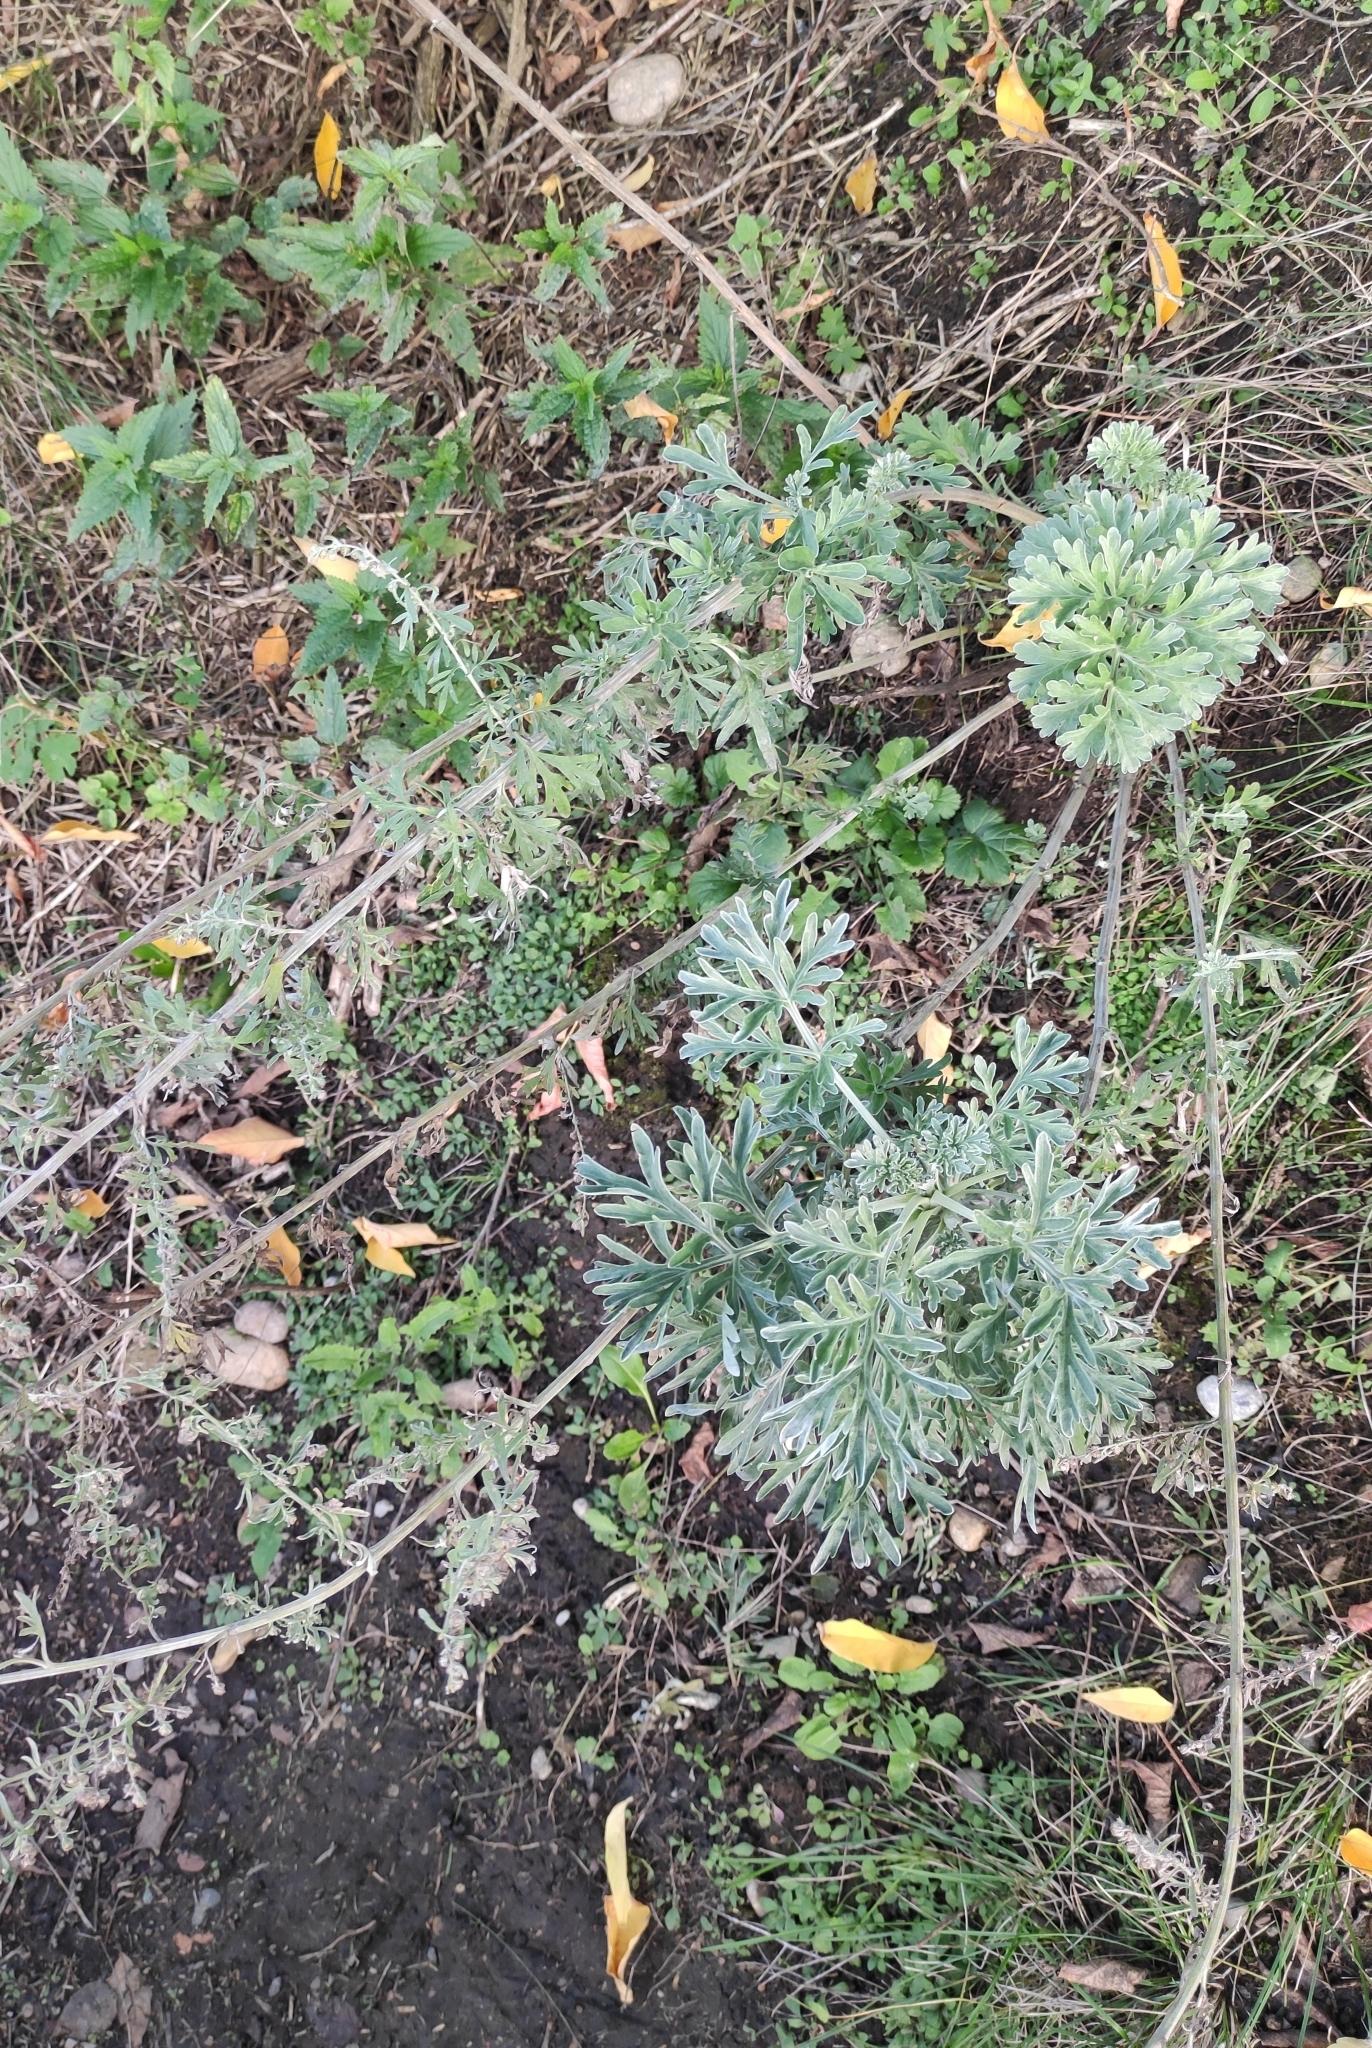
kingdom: Plantae
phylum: Tracheophyta
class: Magnoliopsida
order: Asterales
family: Asteraceae
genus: Artemisia
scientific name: Artemisia absinthium
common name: Wormwood
